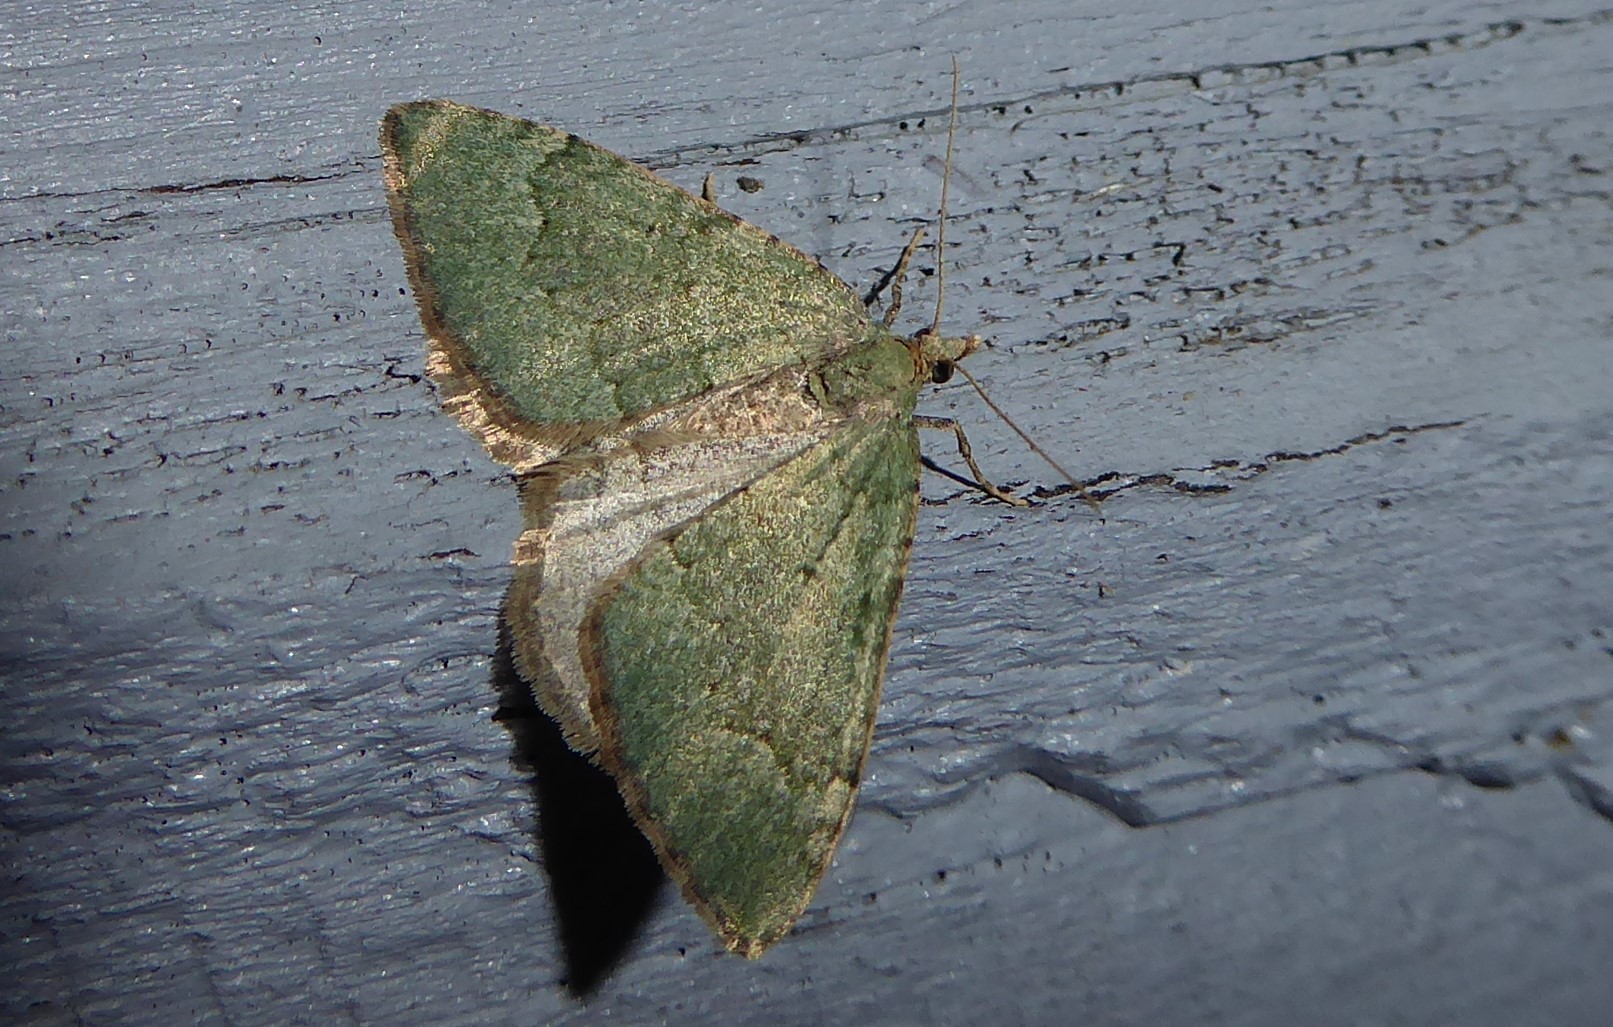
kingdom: Animalia
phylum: Arthropoda
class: Insecta
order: Lepidoptera
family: Geometridae
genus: Epyaxa
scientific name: Epyaxa rosearia
